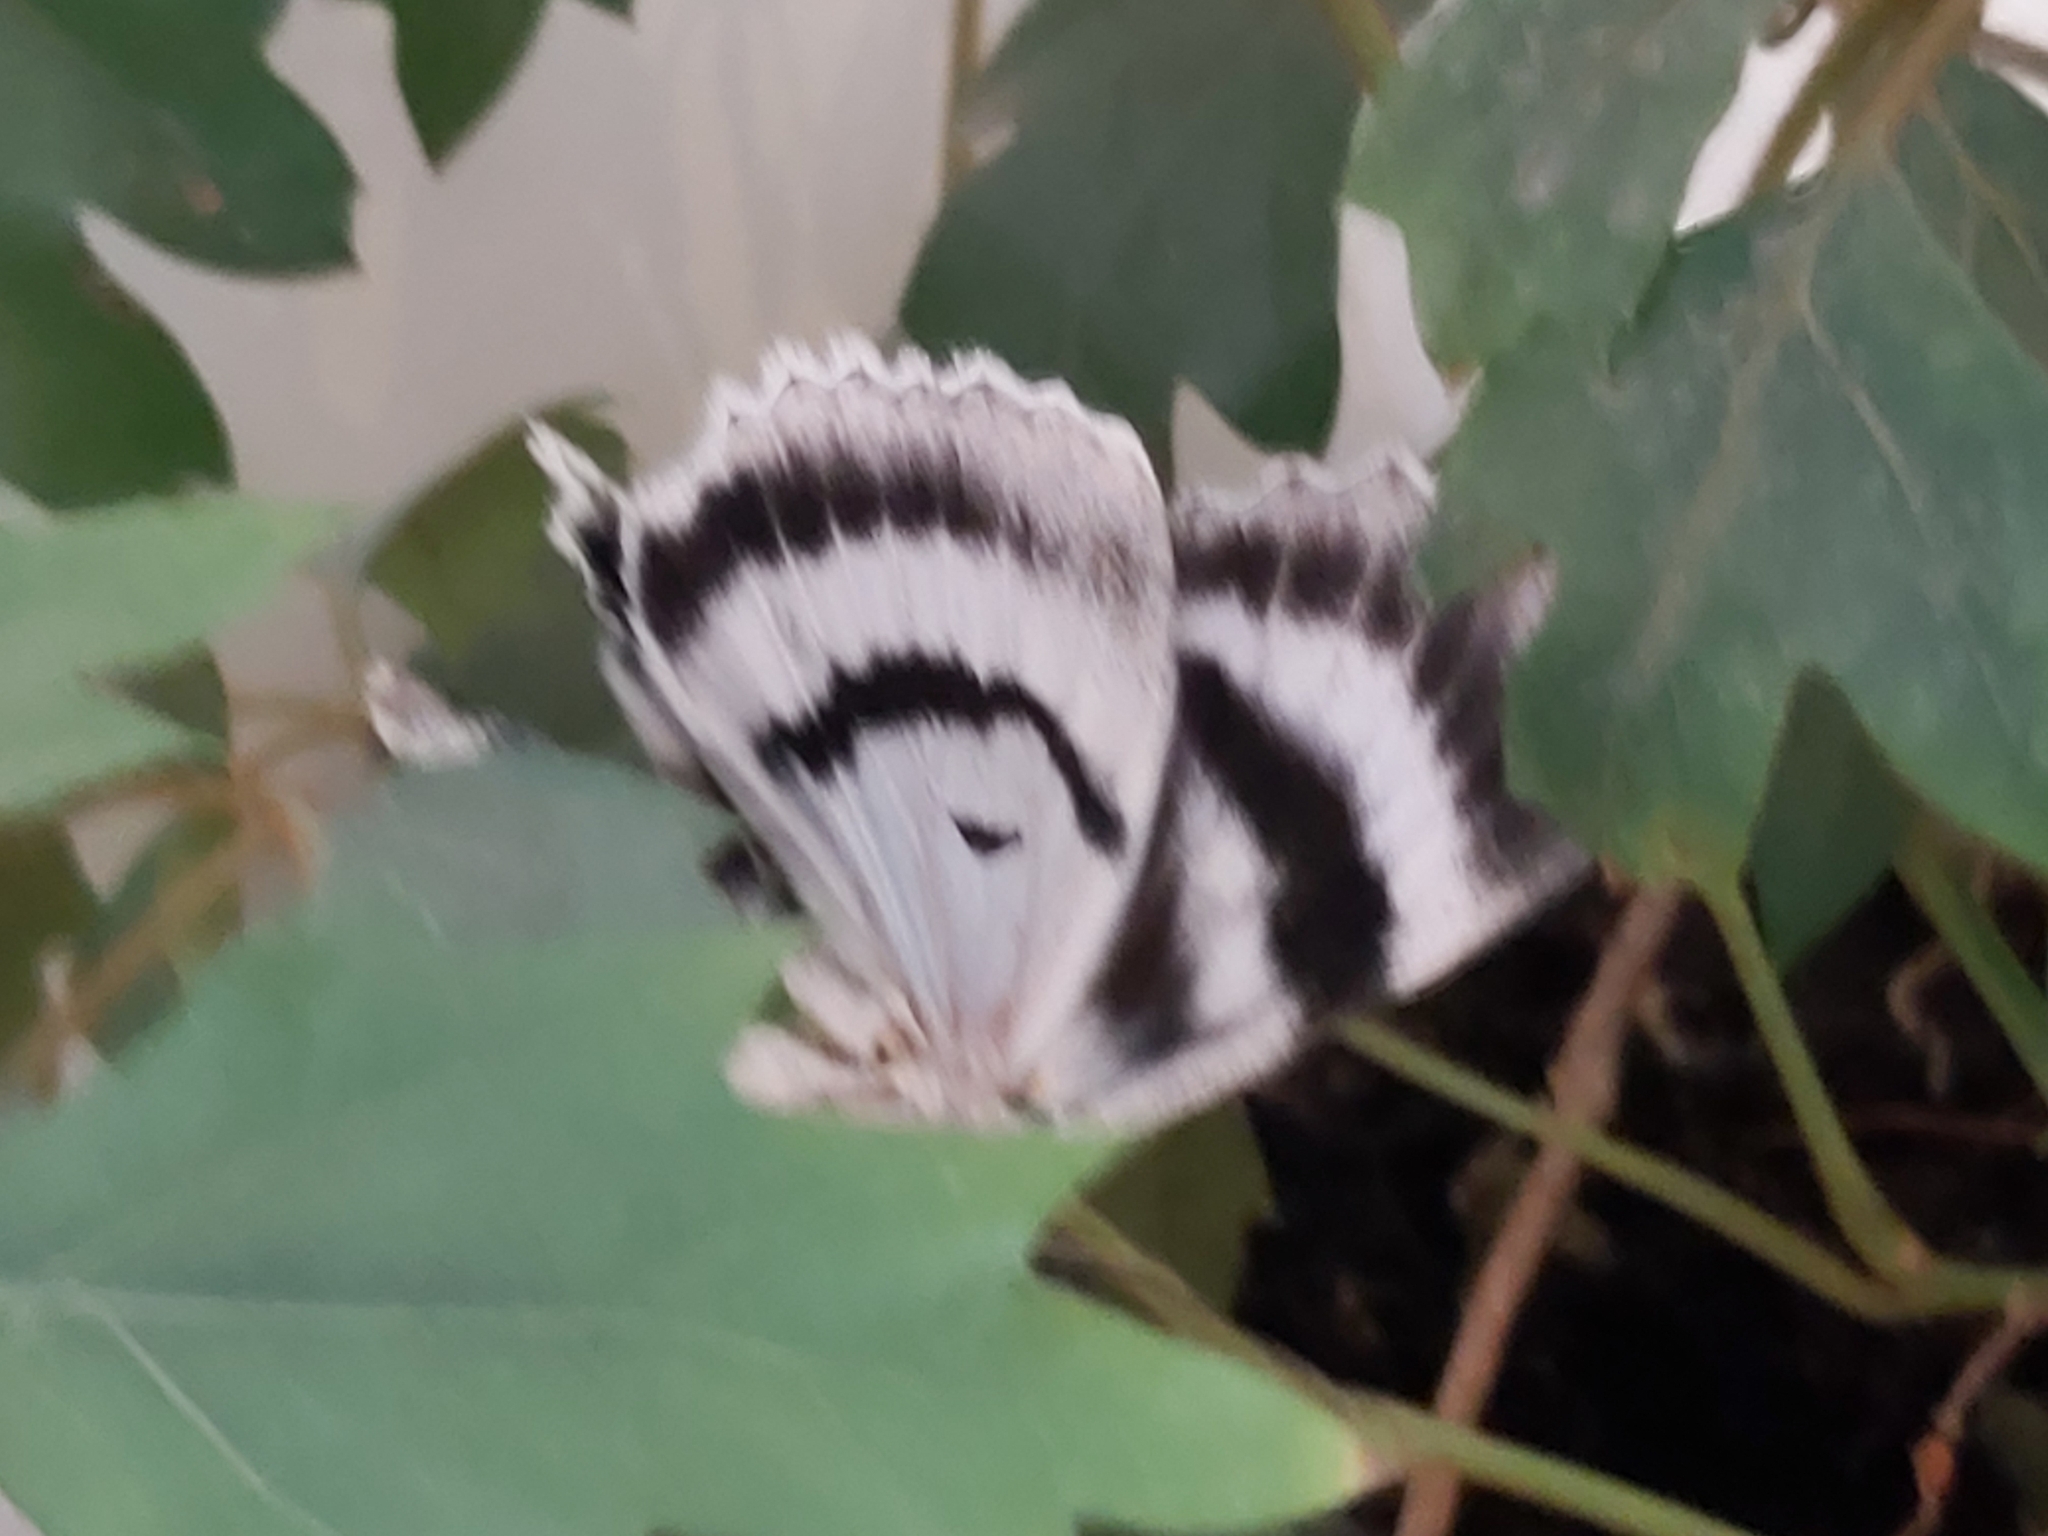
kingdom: Animalia
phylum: Arthropoda
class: Insecta
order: Lepidoptera
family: Erebidae
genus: Catocala
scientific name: Catocala fraxini
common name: Clifden nonpareil
